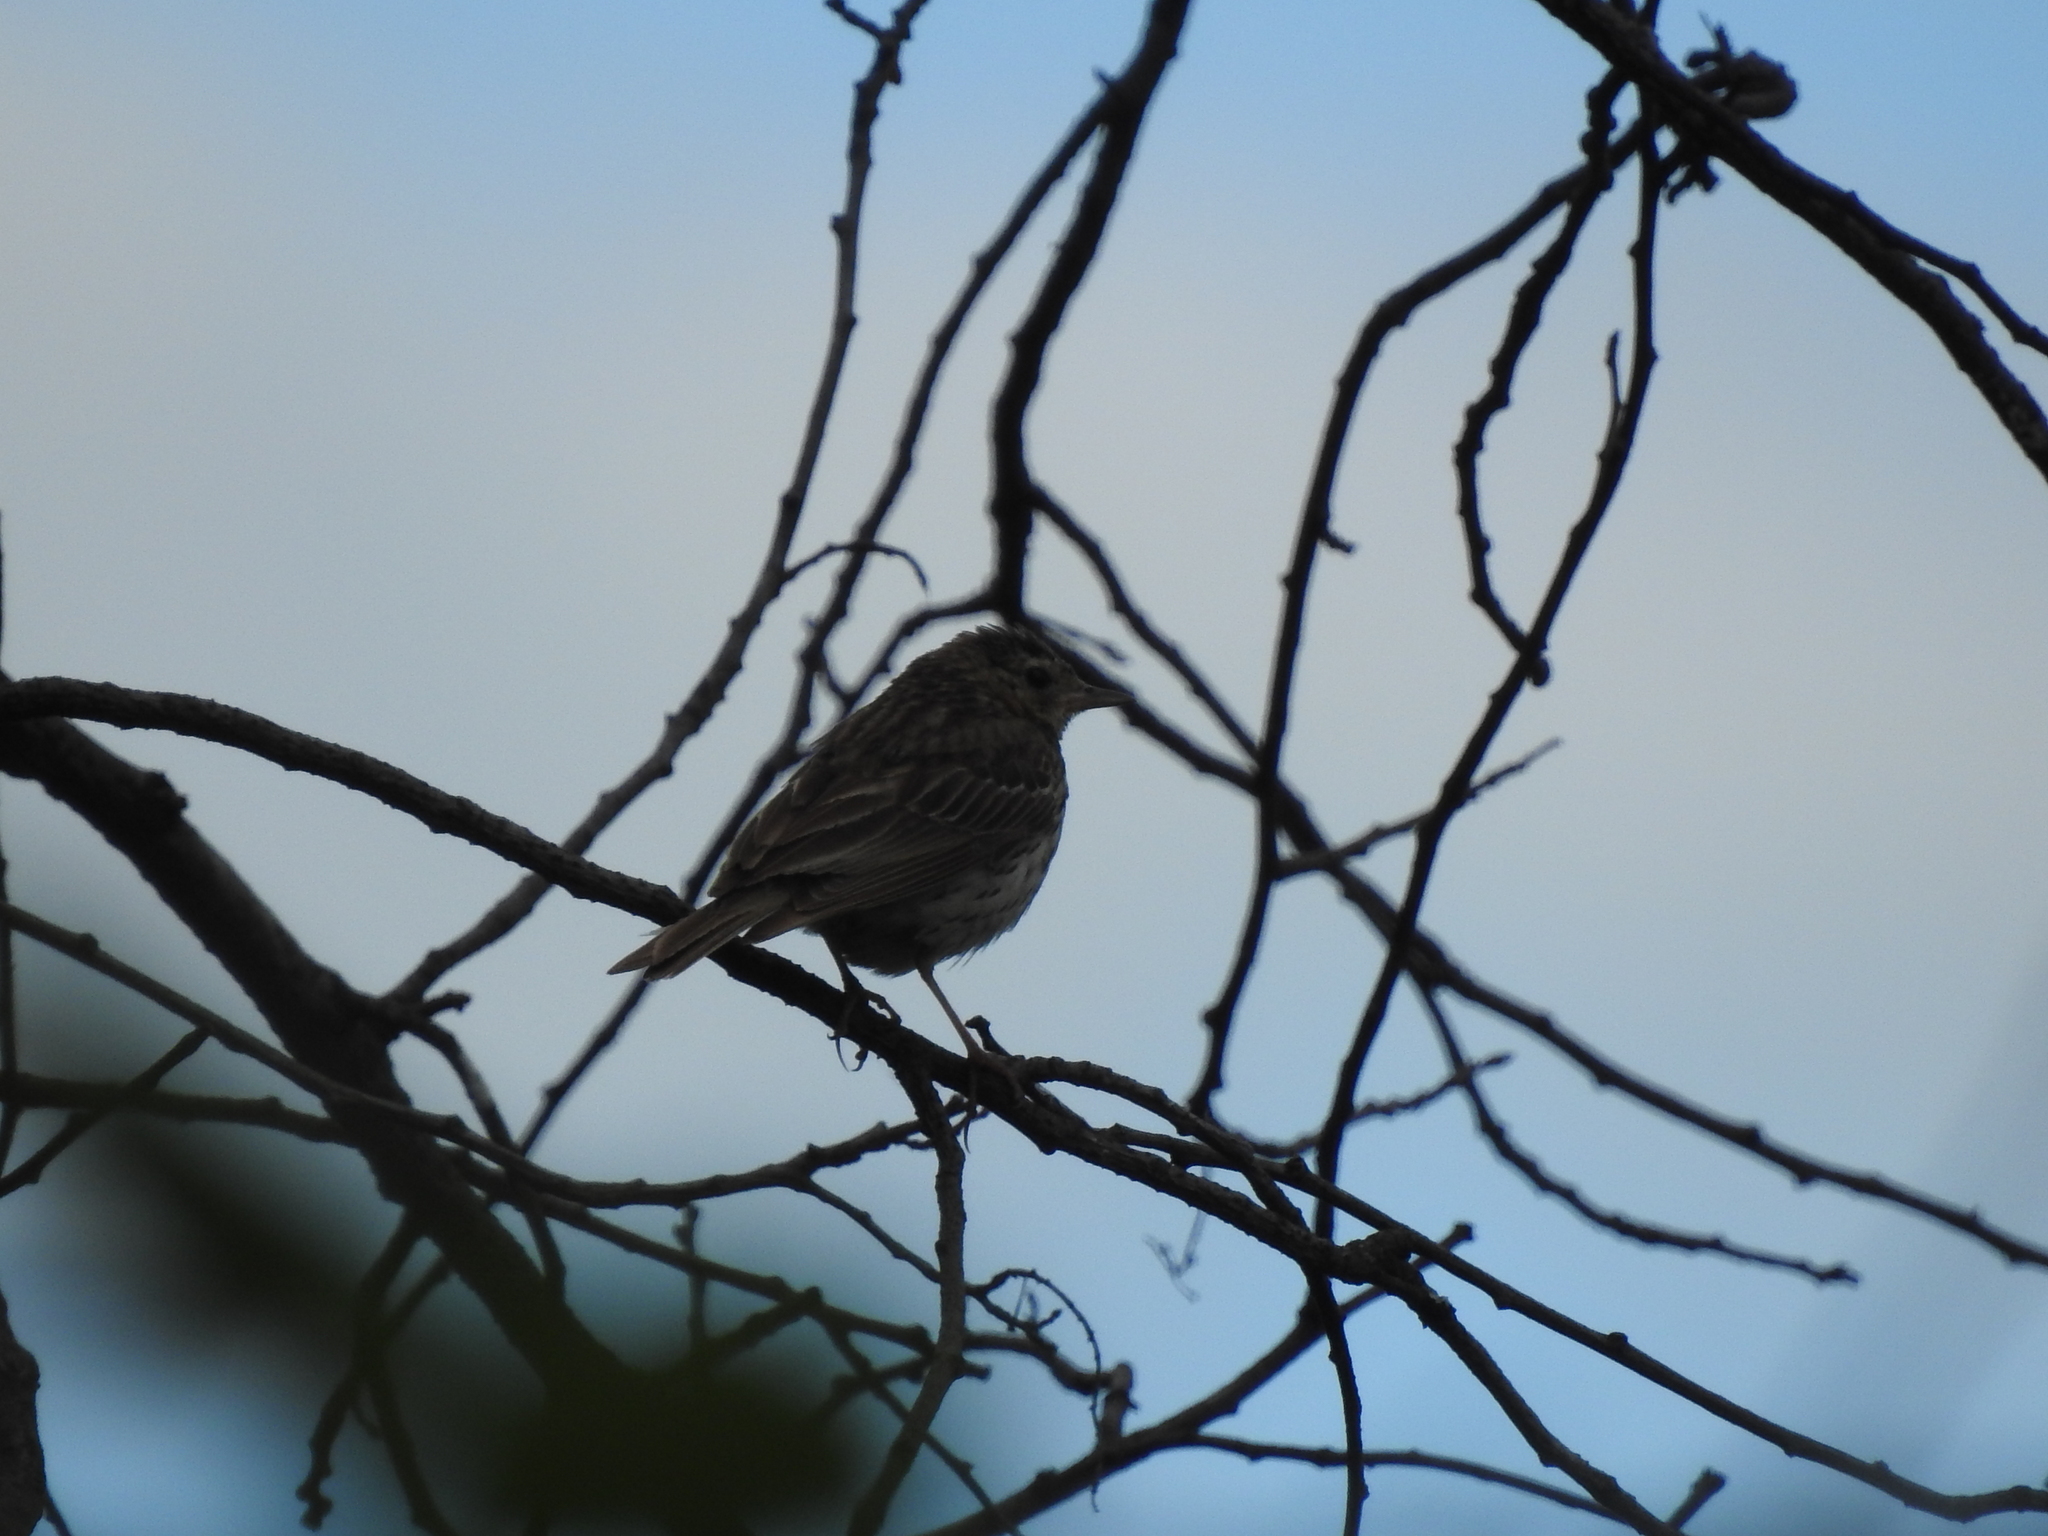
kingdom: Animalia
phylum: Chordata
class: Aves
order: Passeriformes
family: Motacillidae
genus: Anthus
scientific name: Anthus trivialis
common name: Tree pipit
